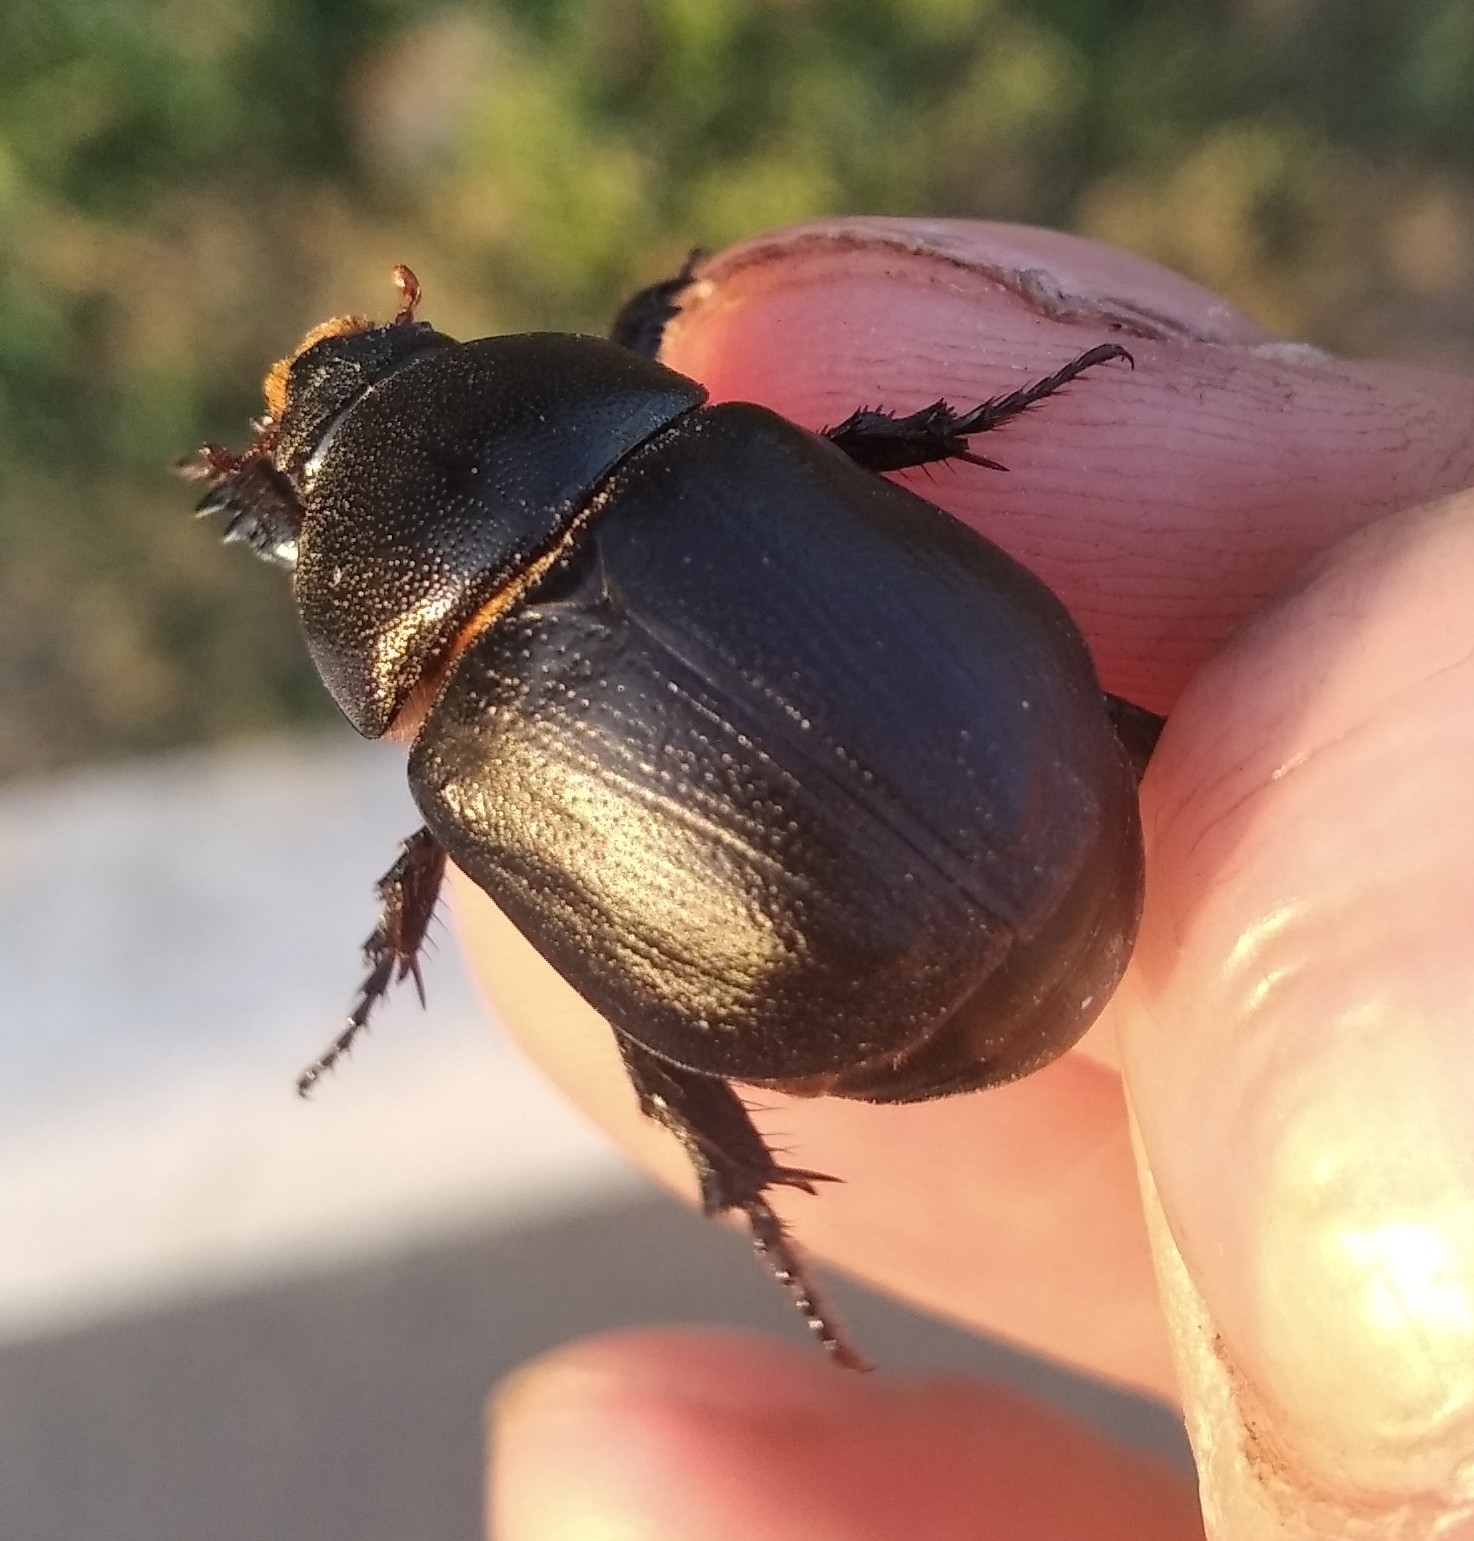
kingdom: Animalia
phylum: Arthropoda
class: Insecta
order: Coleoptera
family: Scarabaeidae
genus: Pentodon
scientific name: Pentodon idiota
